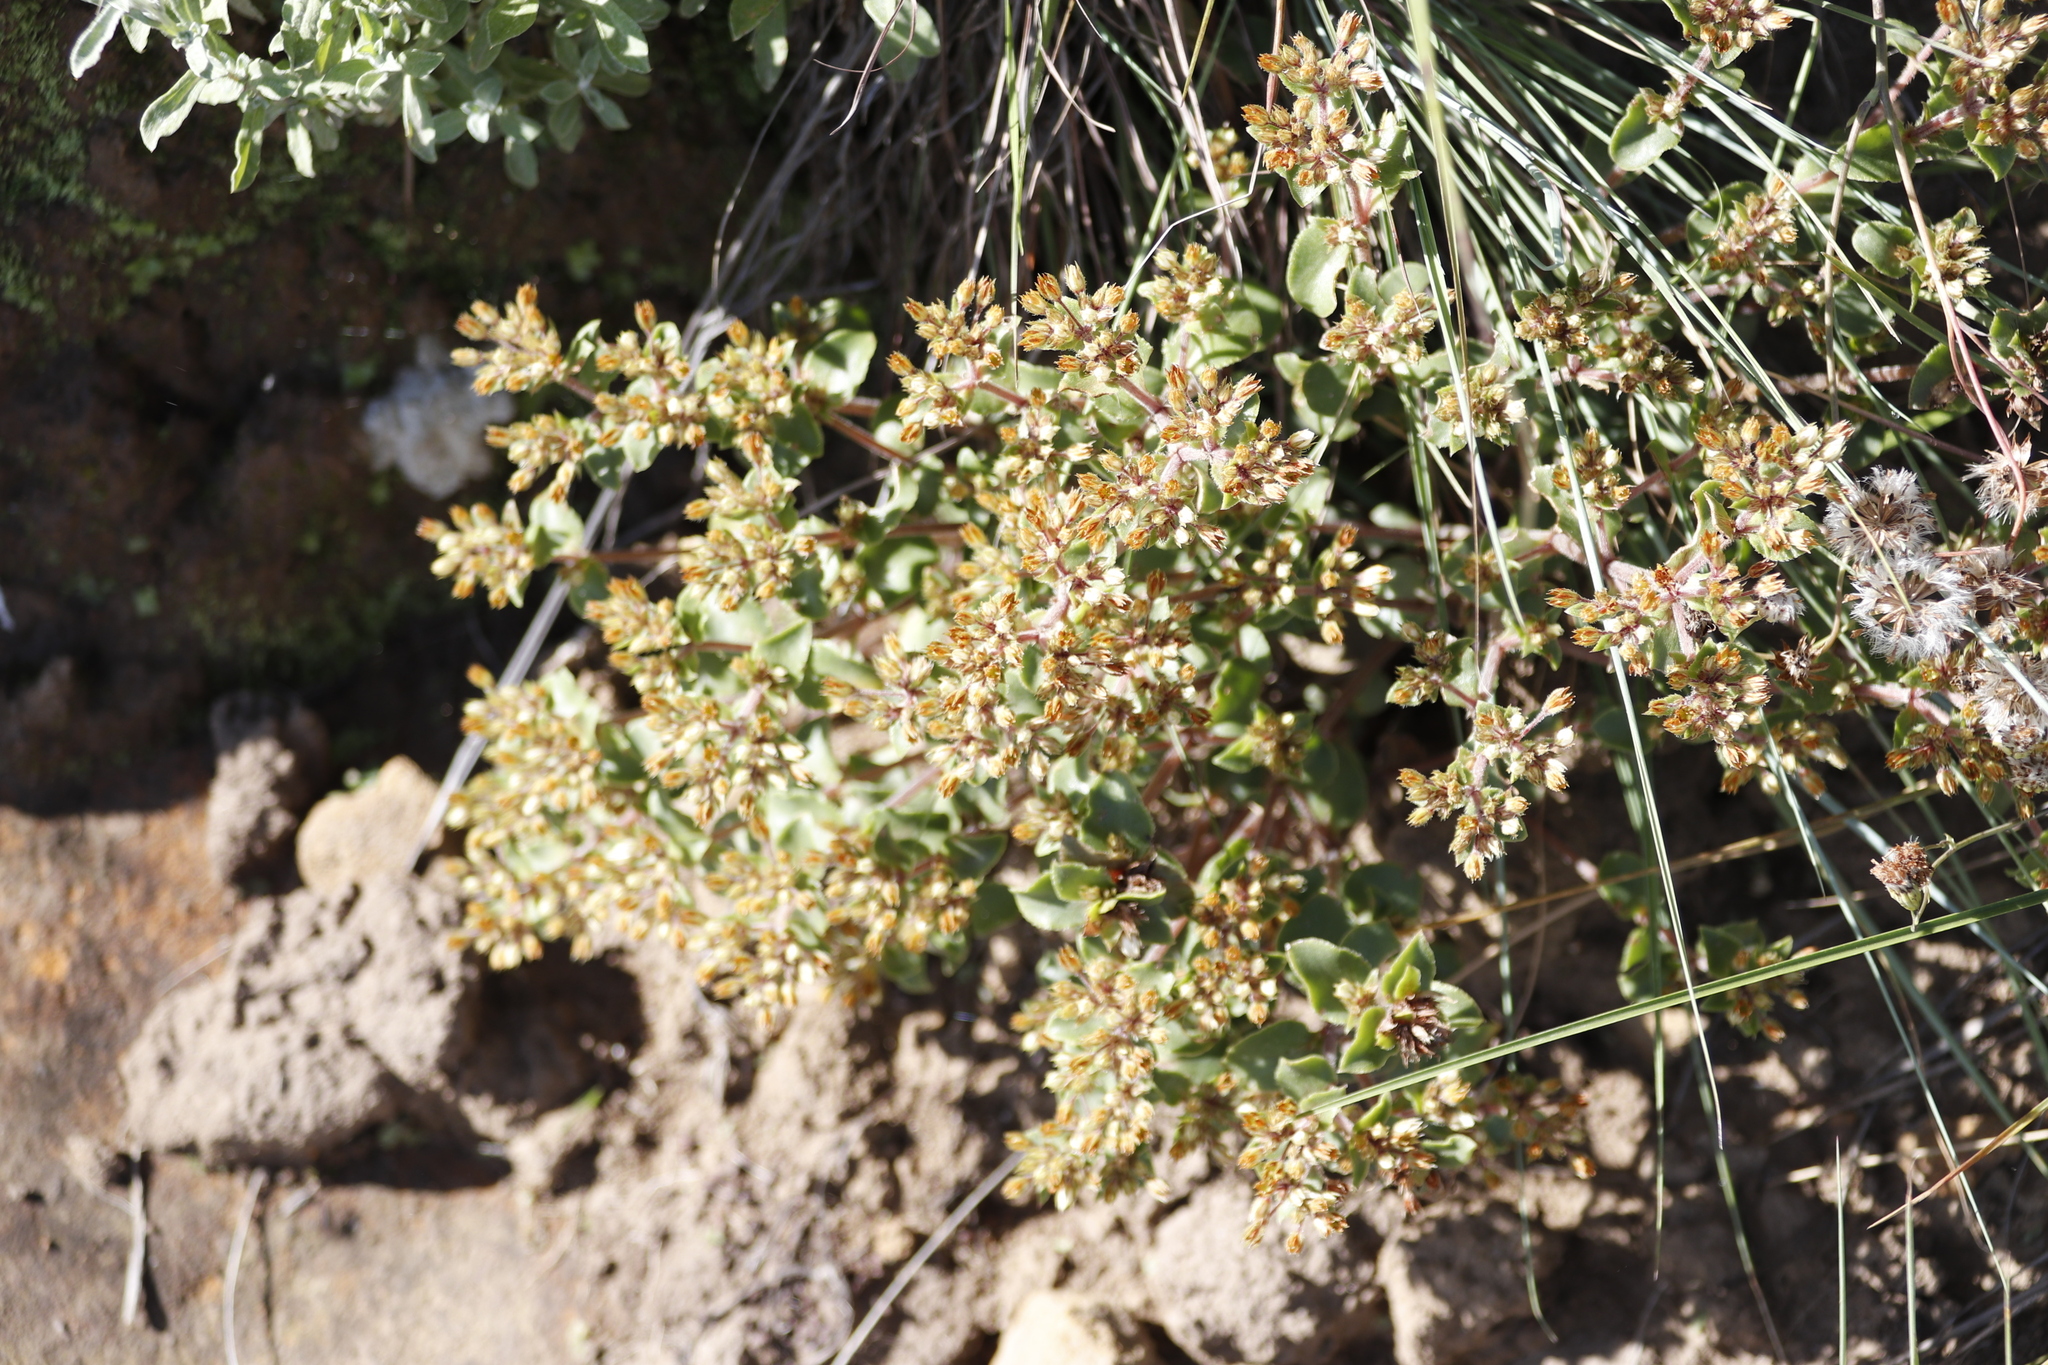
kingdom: Plantae
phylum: Tracheophyta
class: Magnoliopsida
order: Saxifragales
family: Crassulaceae
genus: Crassula
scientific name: Crassula pellucida
